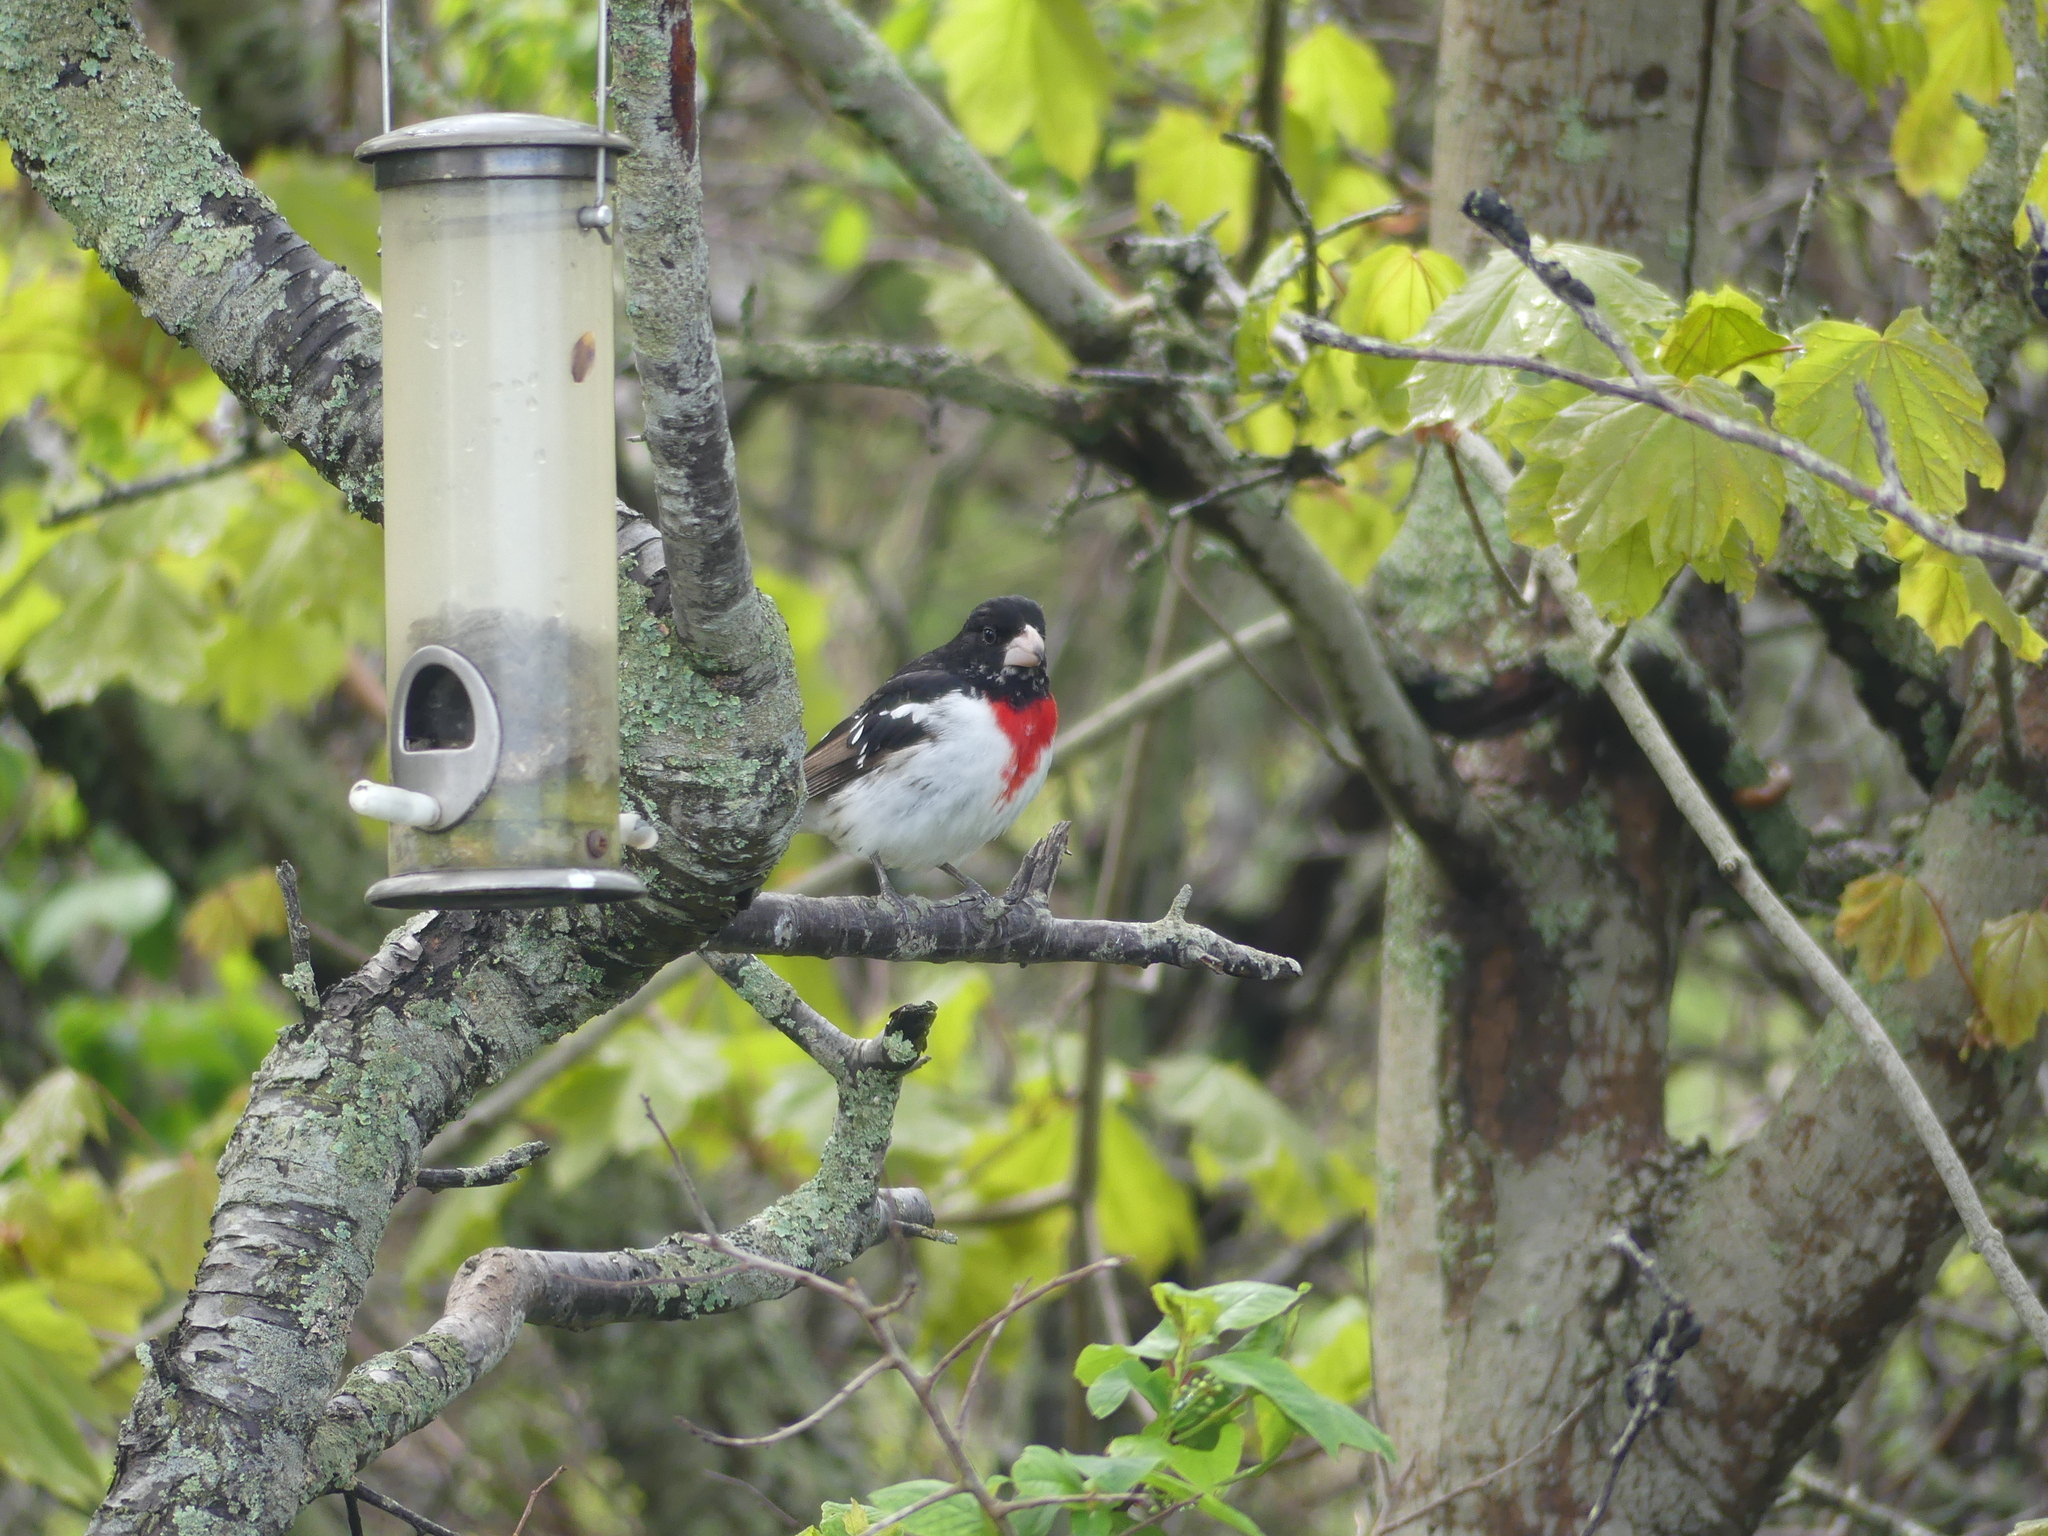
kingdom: Animalia
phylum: Chordata
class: Aves
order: Passeriformes
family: Cardinalidae
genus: Pheucticus
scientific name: Pheucticus ludovicianus
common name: Rose-breasted grosbeak
